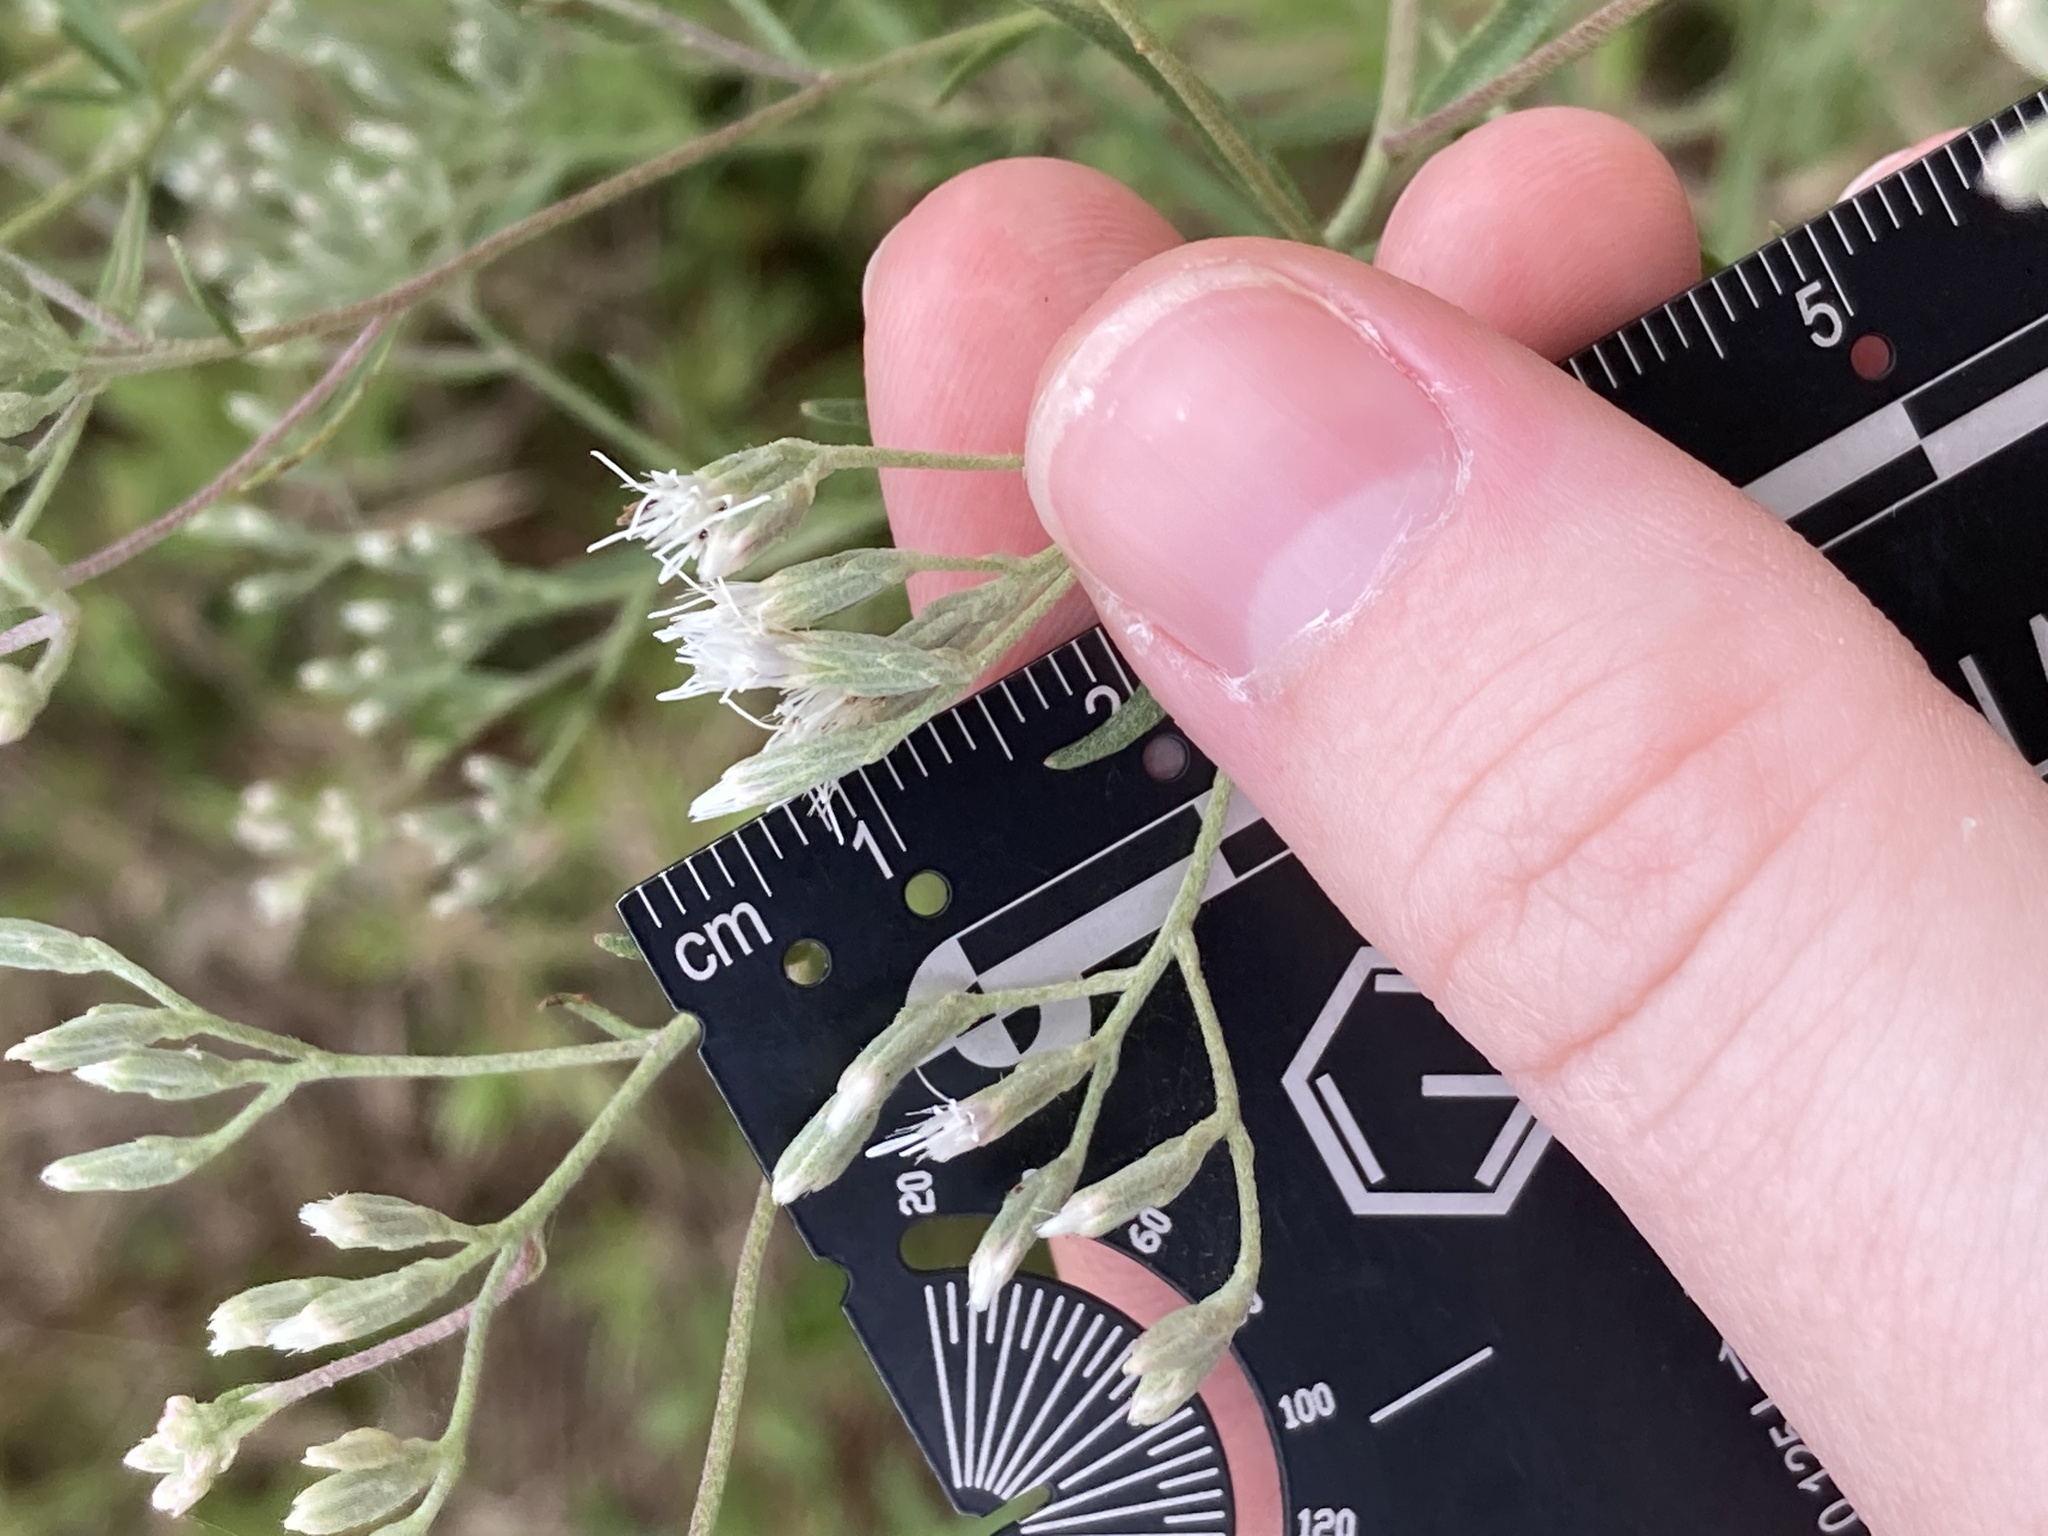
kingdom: Plantae
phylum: Tracheophyta
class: Magnoliopsida
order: Asterales
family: Asteraceae
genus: Eupatorium
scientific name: Eupatorium torreyanum
